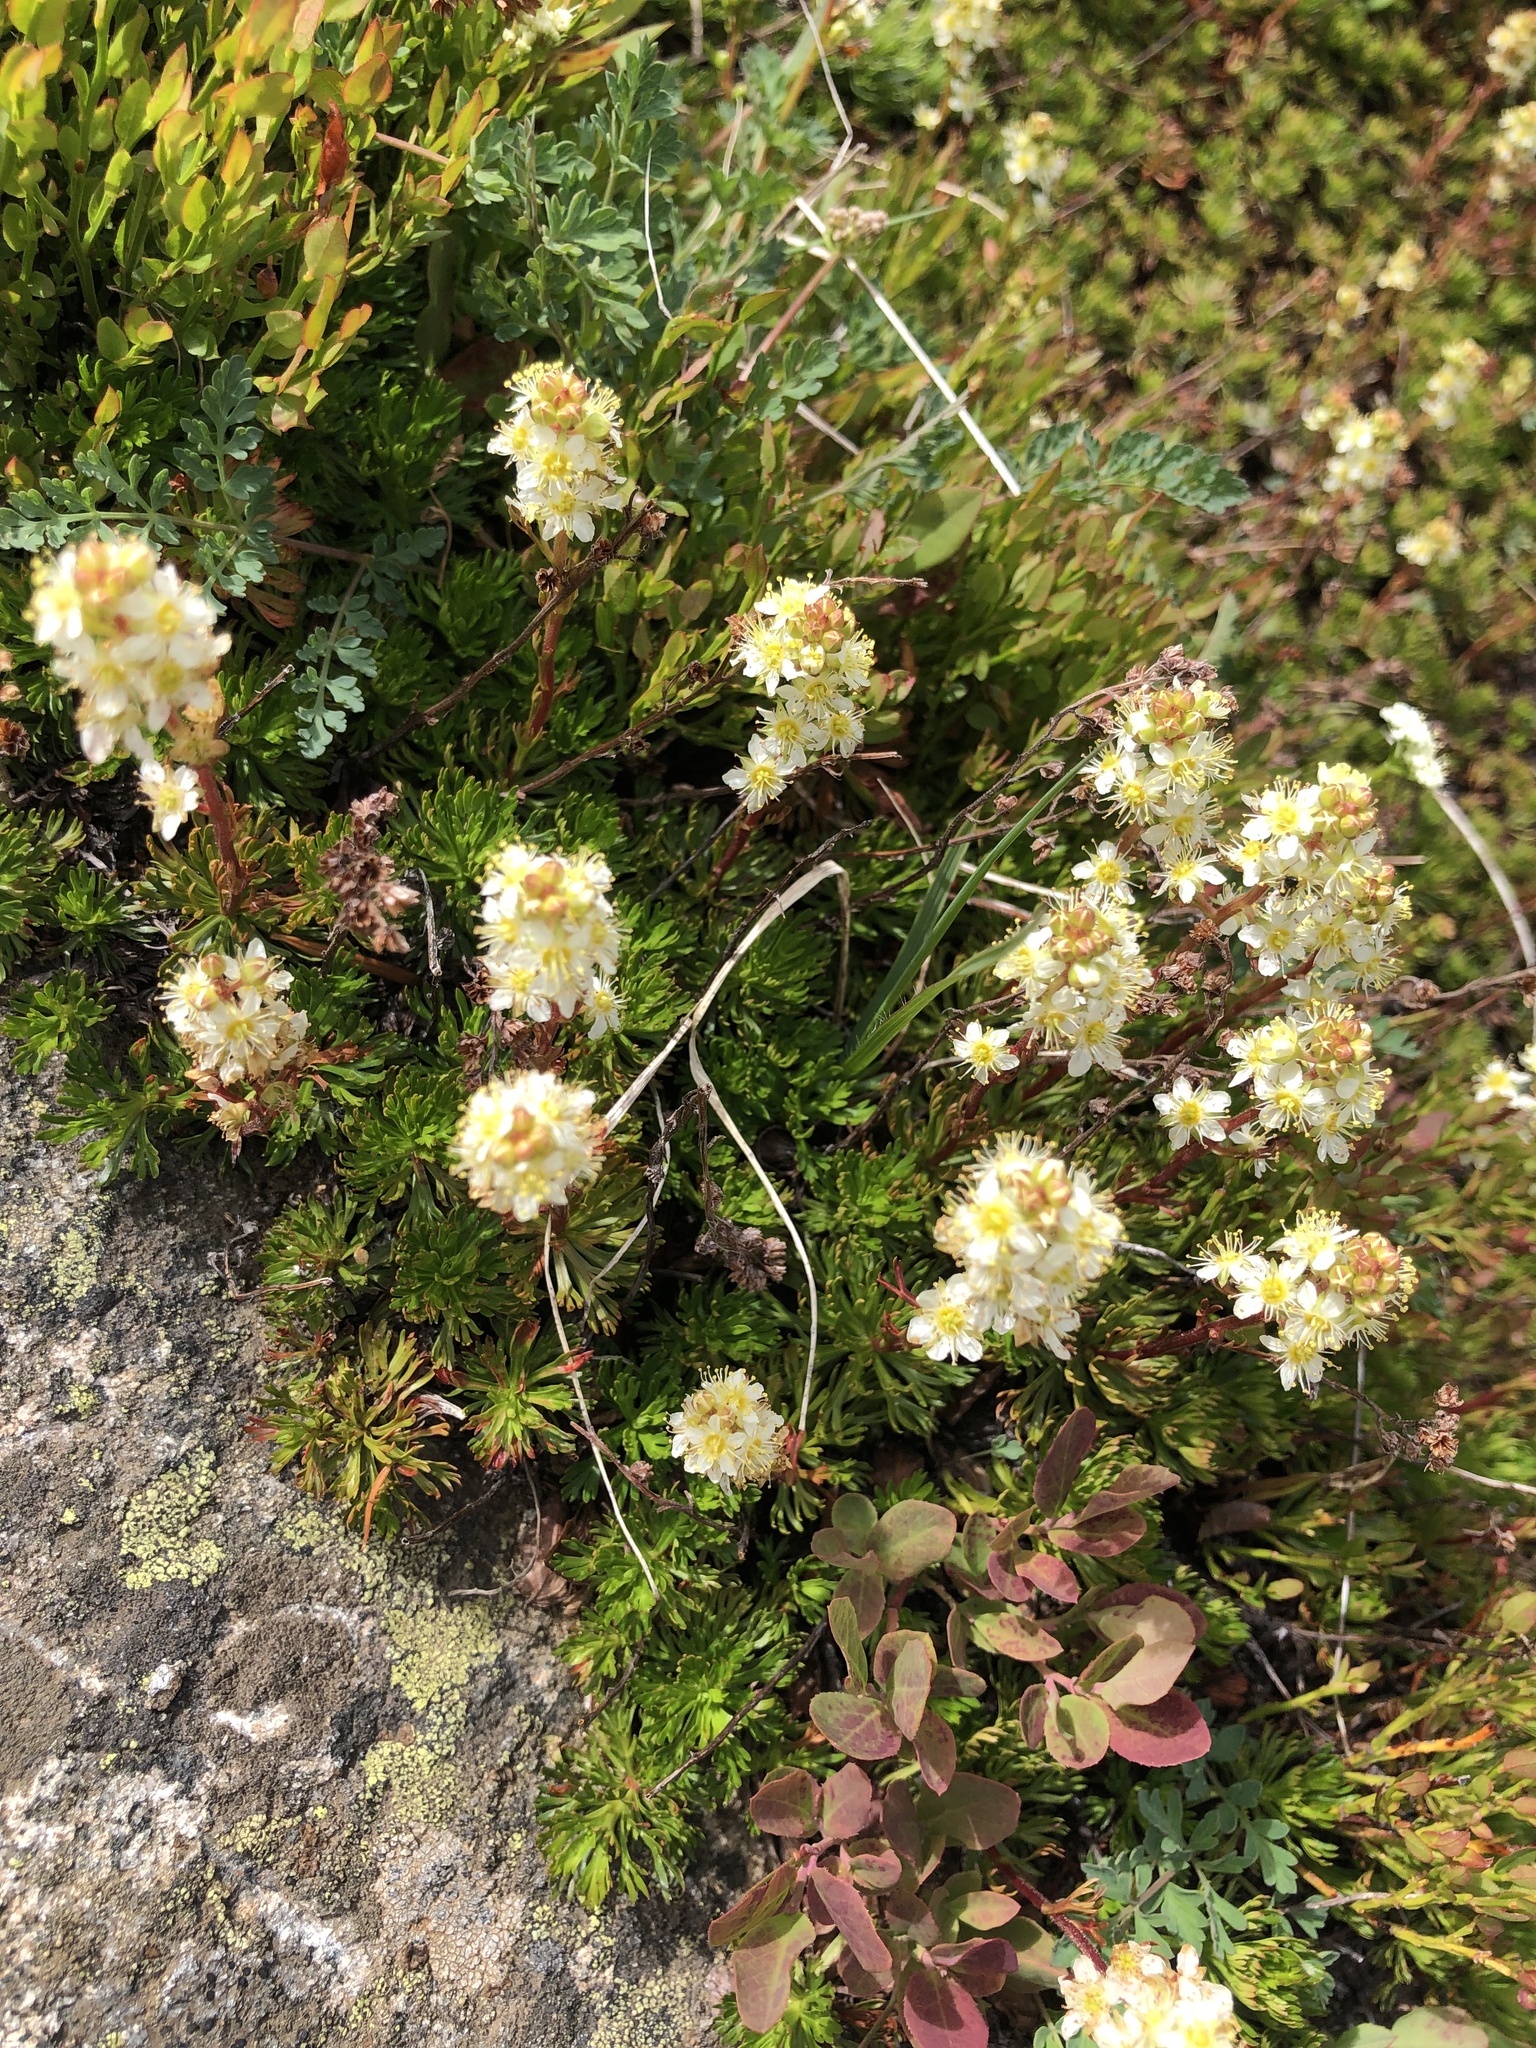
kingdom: Plantae
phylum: Tracheophyta
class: Magnoliopsida
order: Rosales
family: Rosaceae
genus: Luetkea
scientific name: Luetkea pectinata
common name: Partridgefoot
